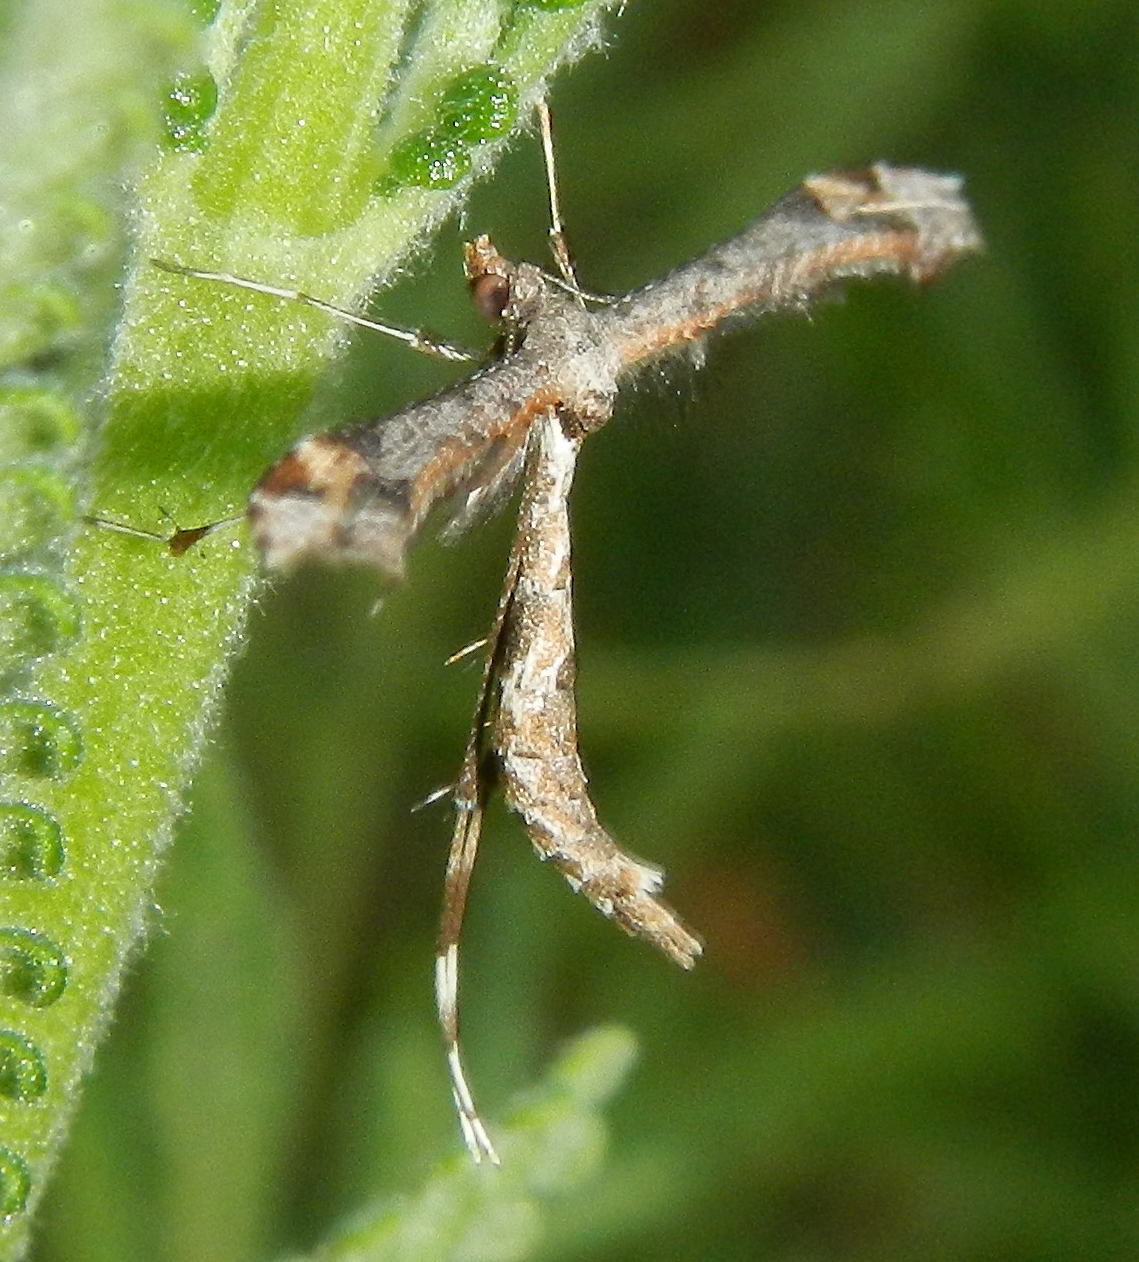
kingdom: Animalia
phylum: Arthropoda
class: Insecta
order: Lepidoptera
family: Pterophoridae
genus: Anstenoptilia
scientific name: Anstenoptilia marmarodactyla
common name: Moth
